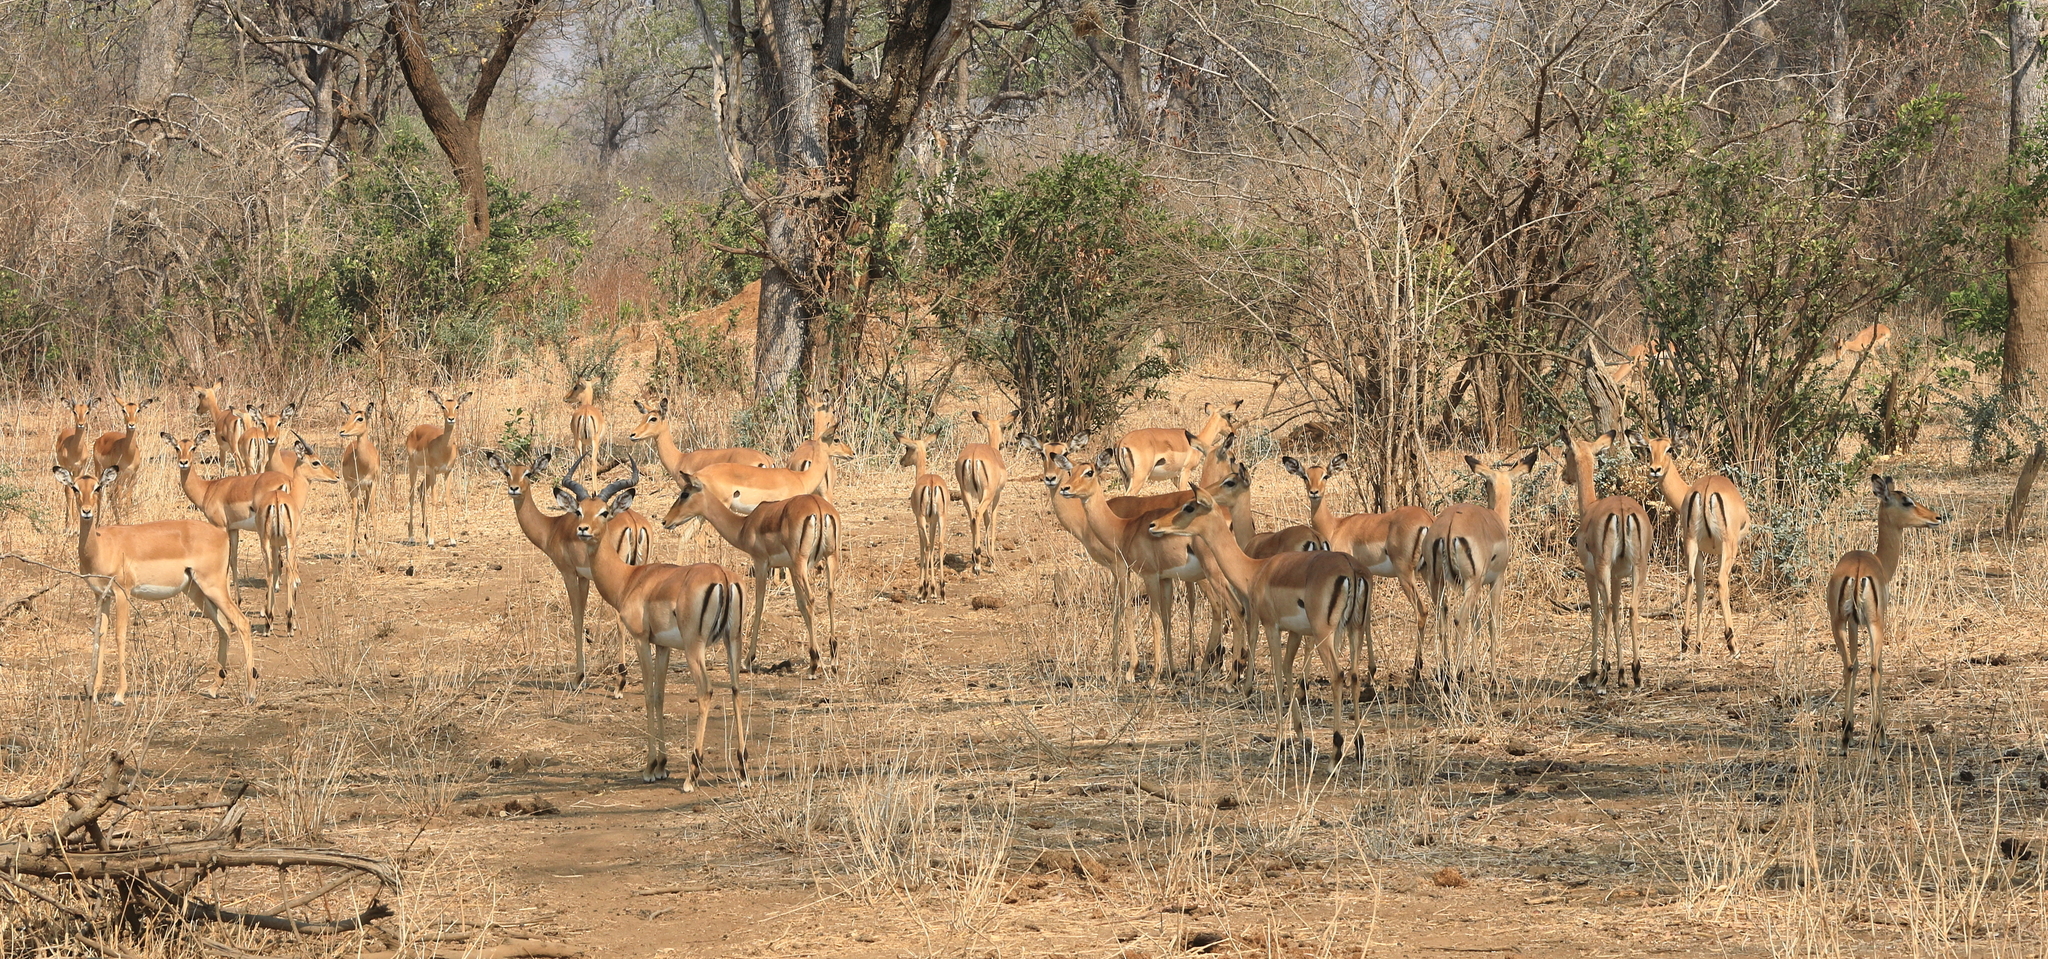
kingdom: Animalia
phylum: Chordata
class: Mammalia
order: Artiodactyla
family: Bovidae
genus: Aepyceros
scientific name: Aepyceros melampus
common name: Impala
